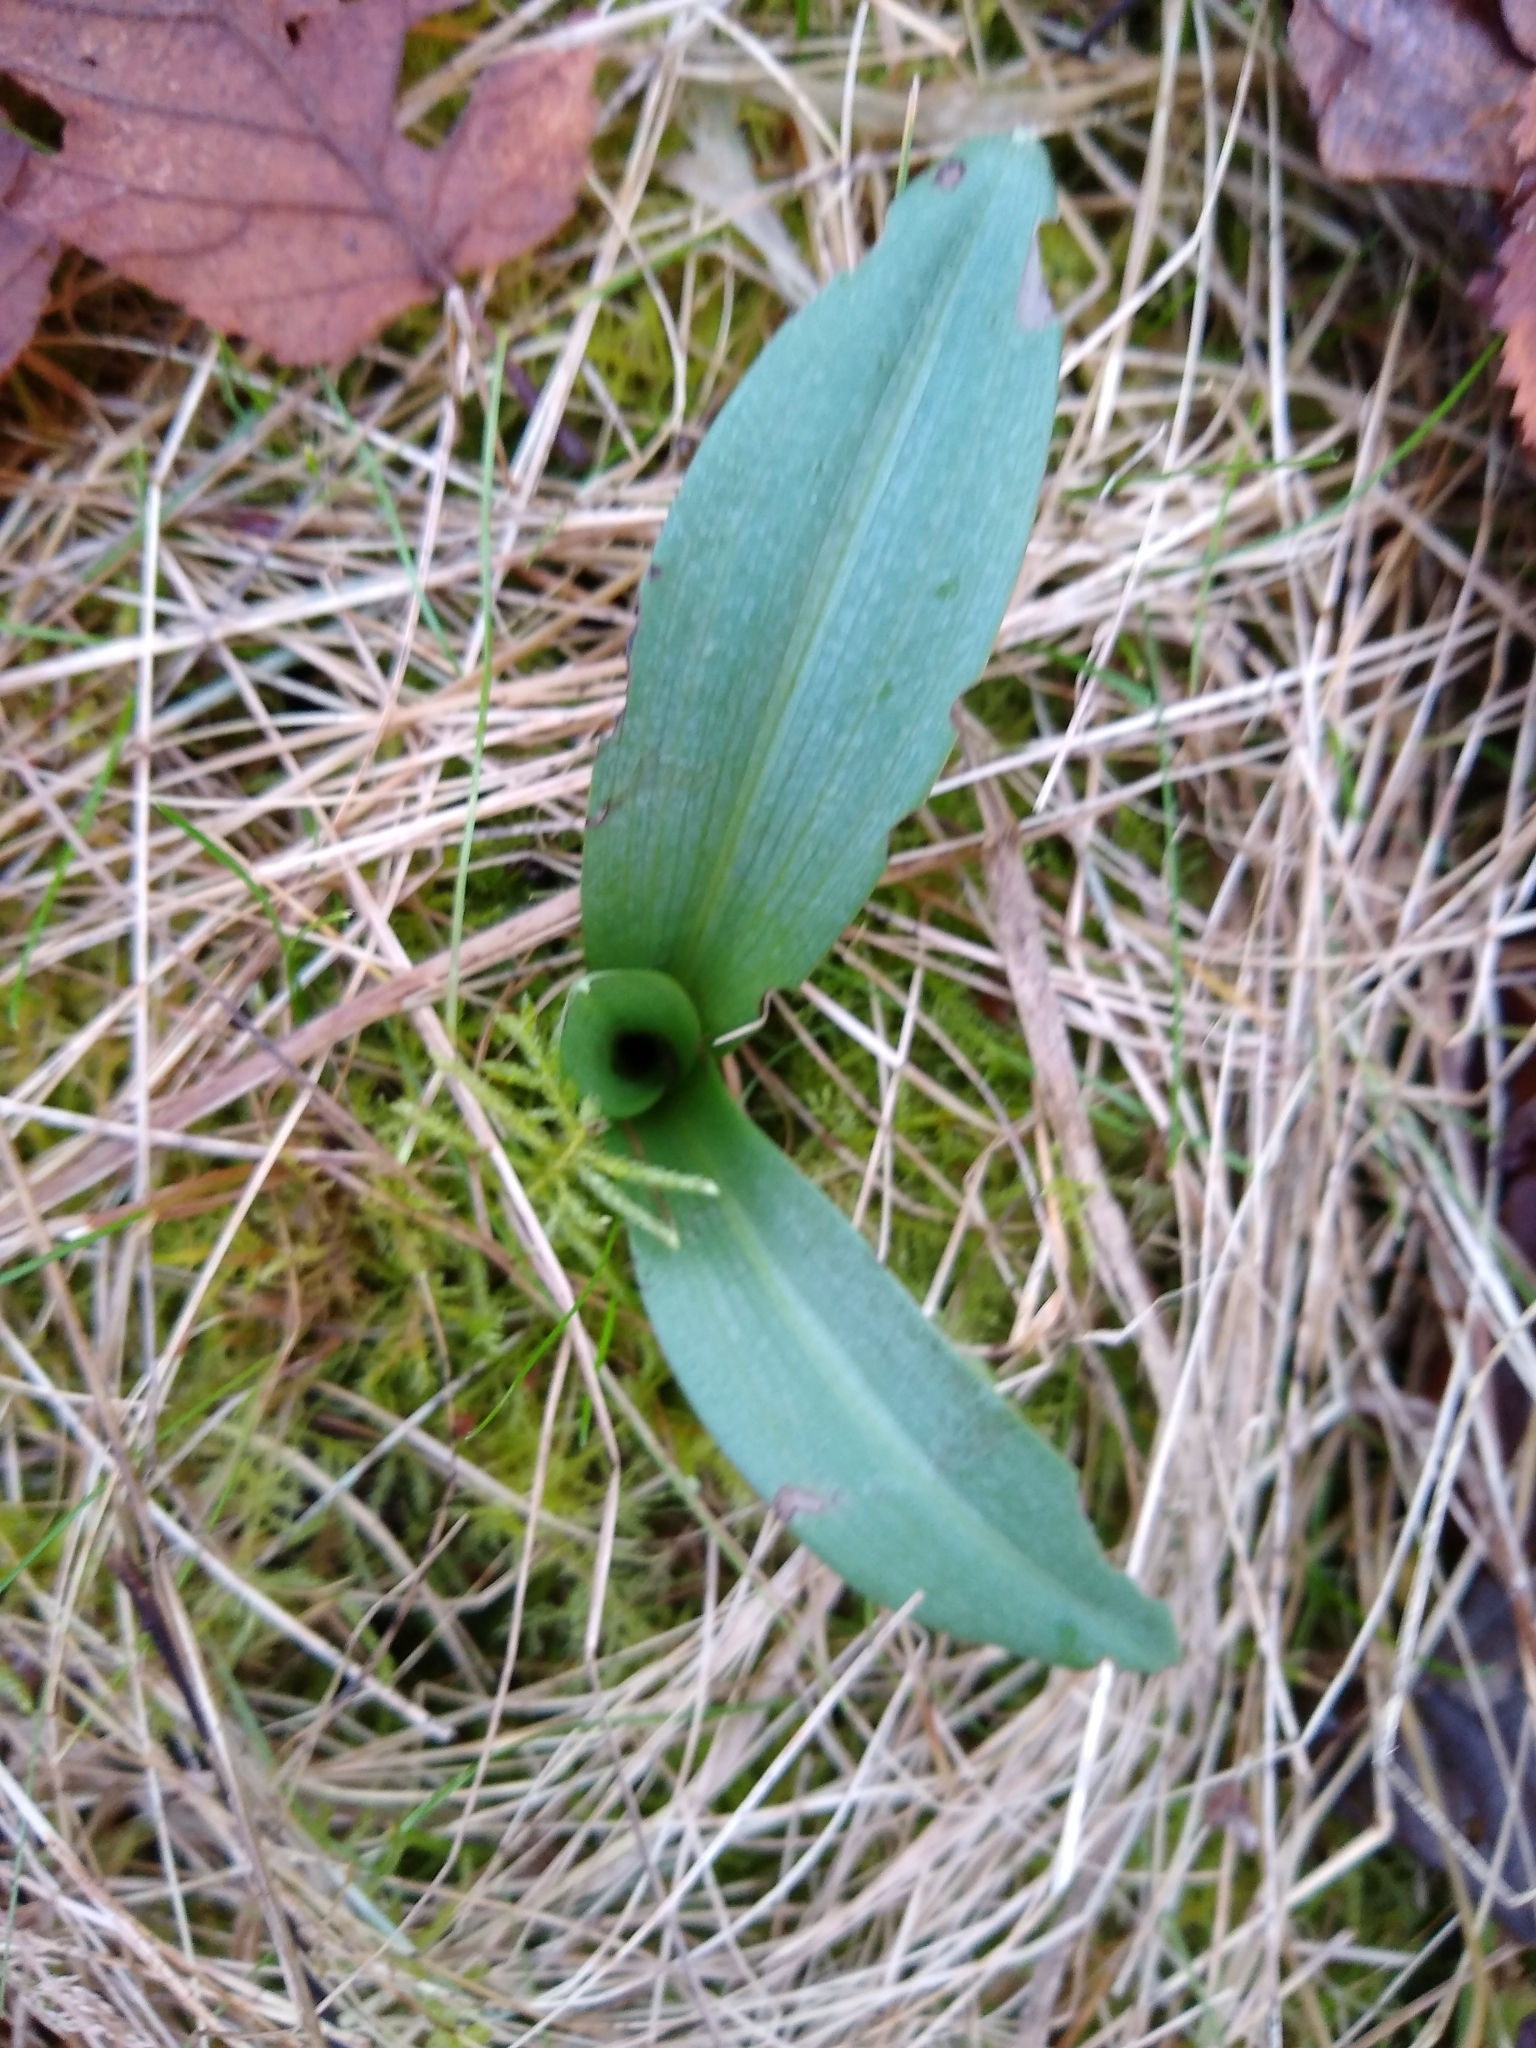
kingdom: Plantae
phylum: Tracheophyta
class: Liliopsida
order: Asparagales
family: Orchidaceae
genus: Ophrys
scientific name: Ophrys apifera
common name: Bee orchid
